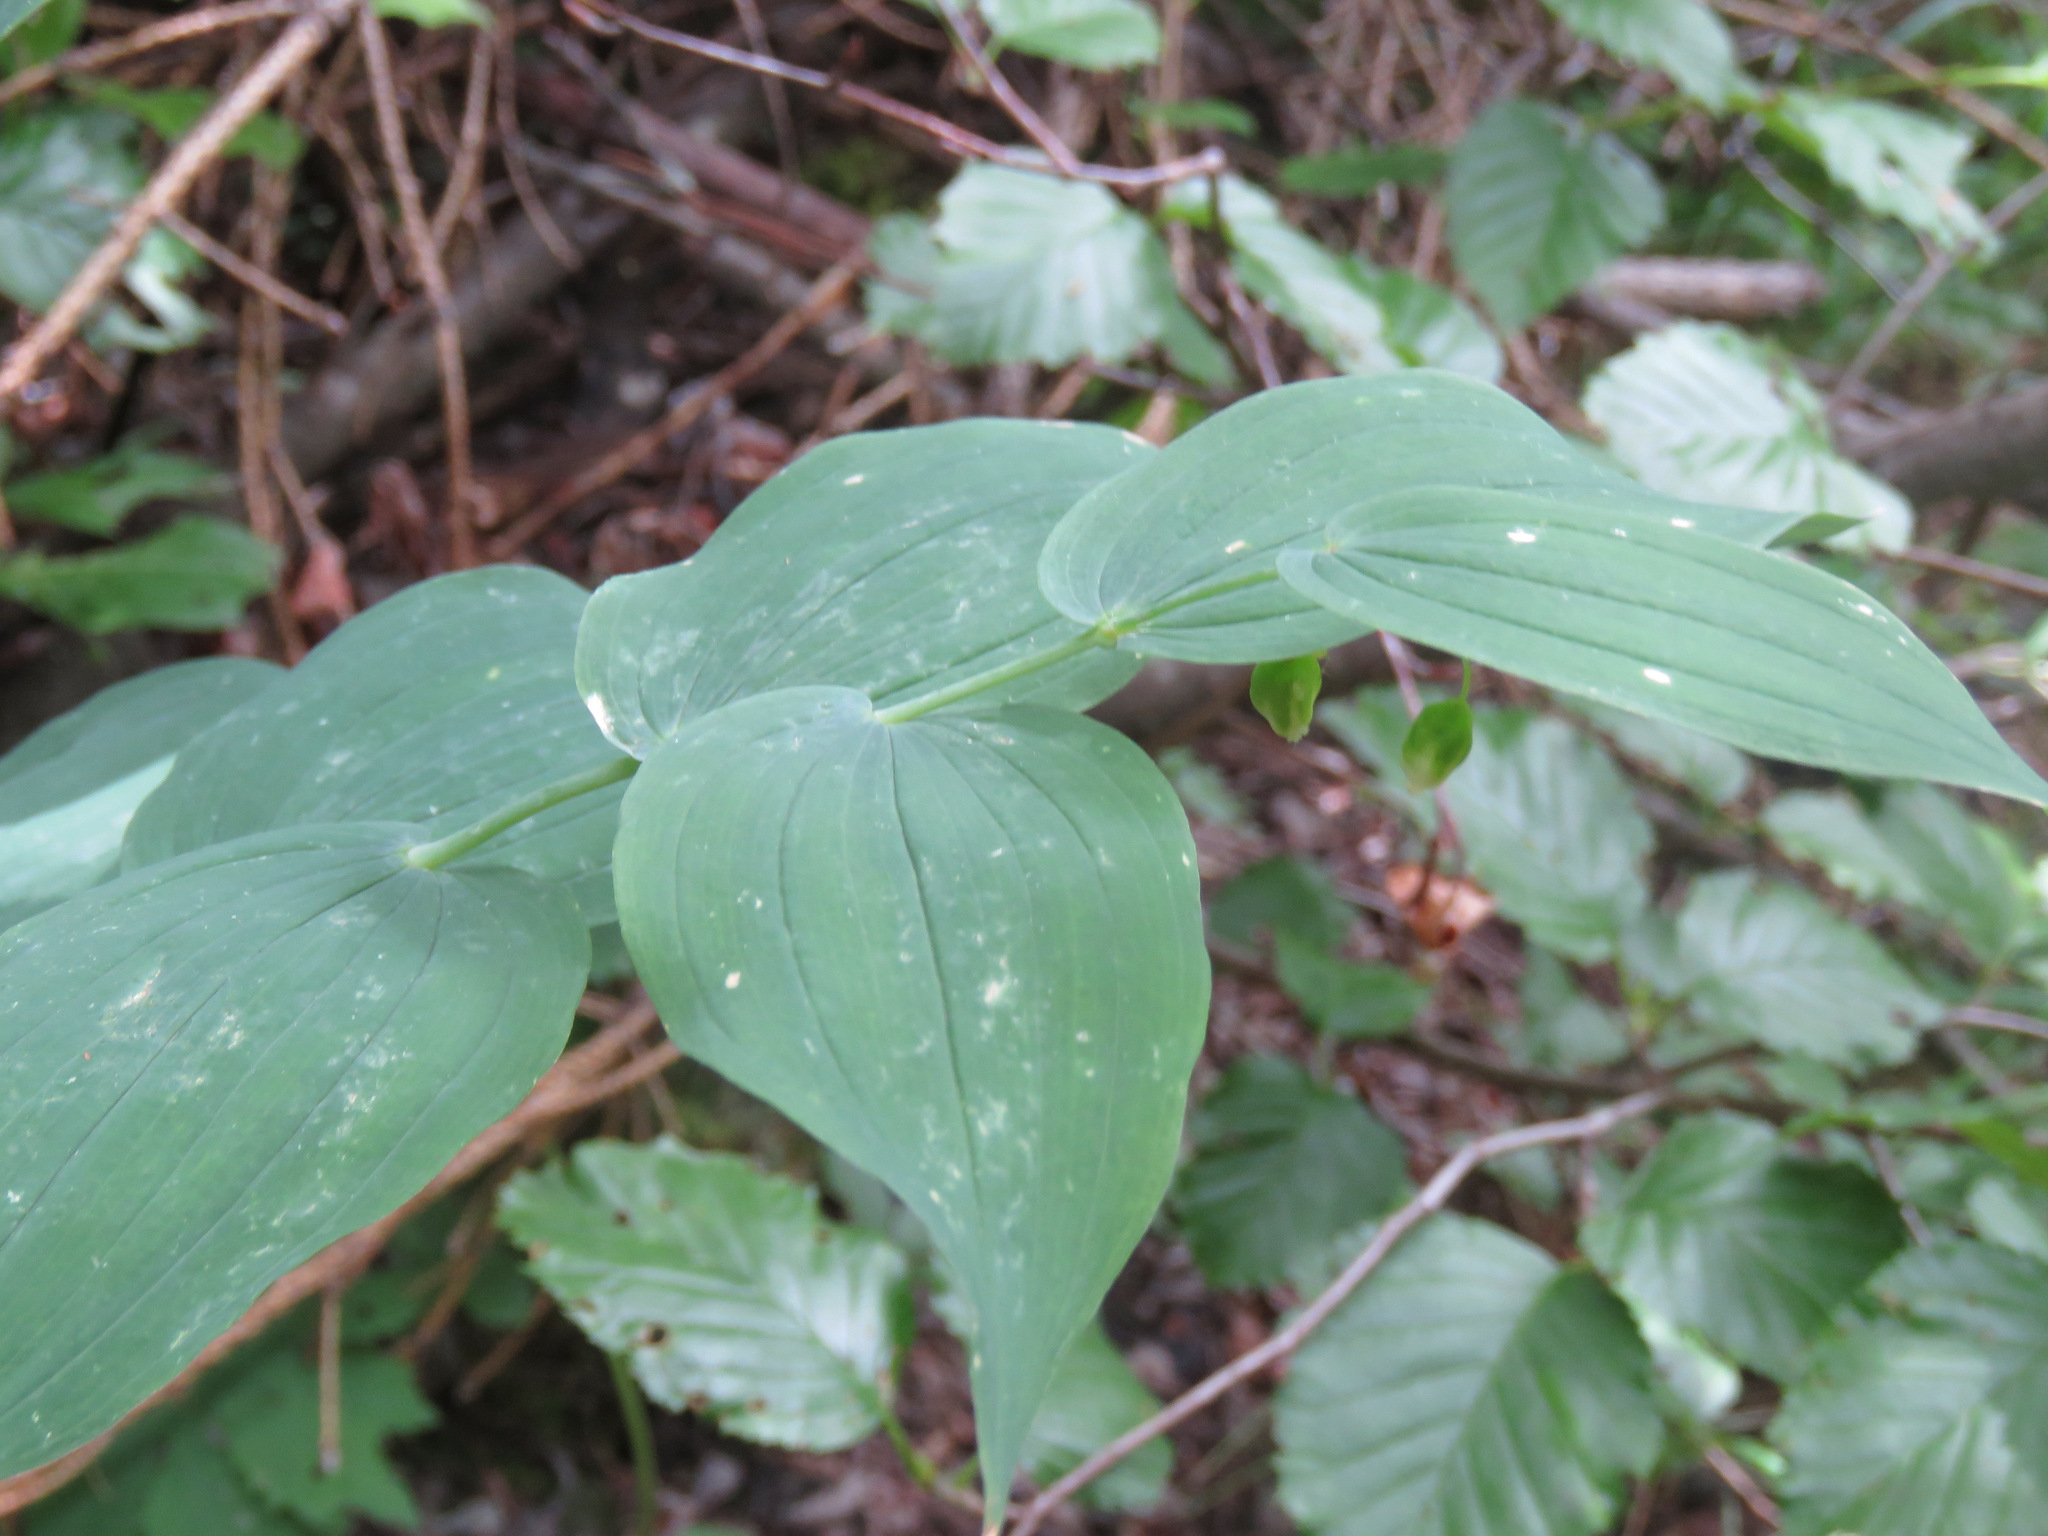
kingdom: Plantae
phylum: Tracheophyta
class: Liliopsida
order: Liliales
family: Liliaceae
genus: Streptopus
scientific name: Streptopus amplexifolius
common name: Clasp twisted stalk
